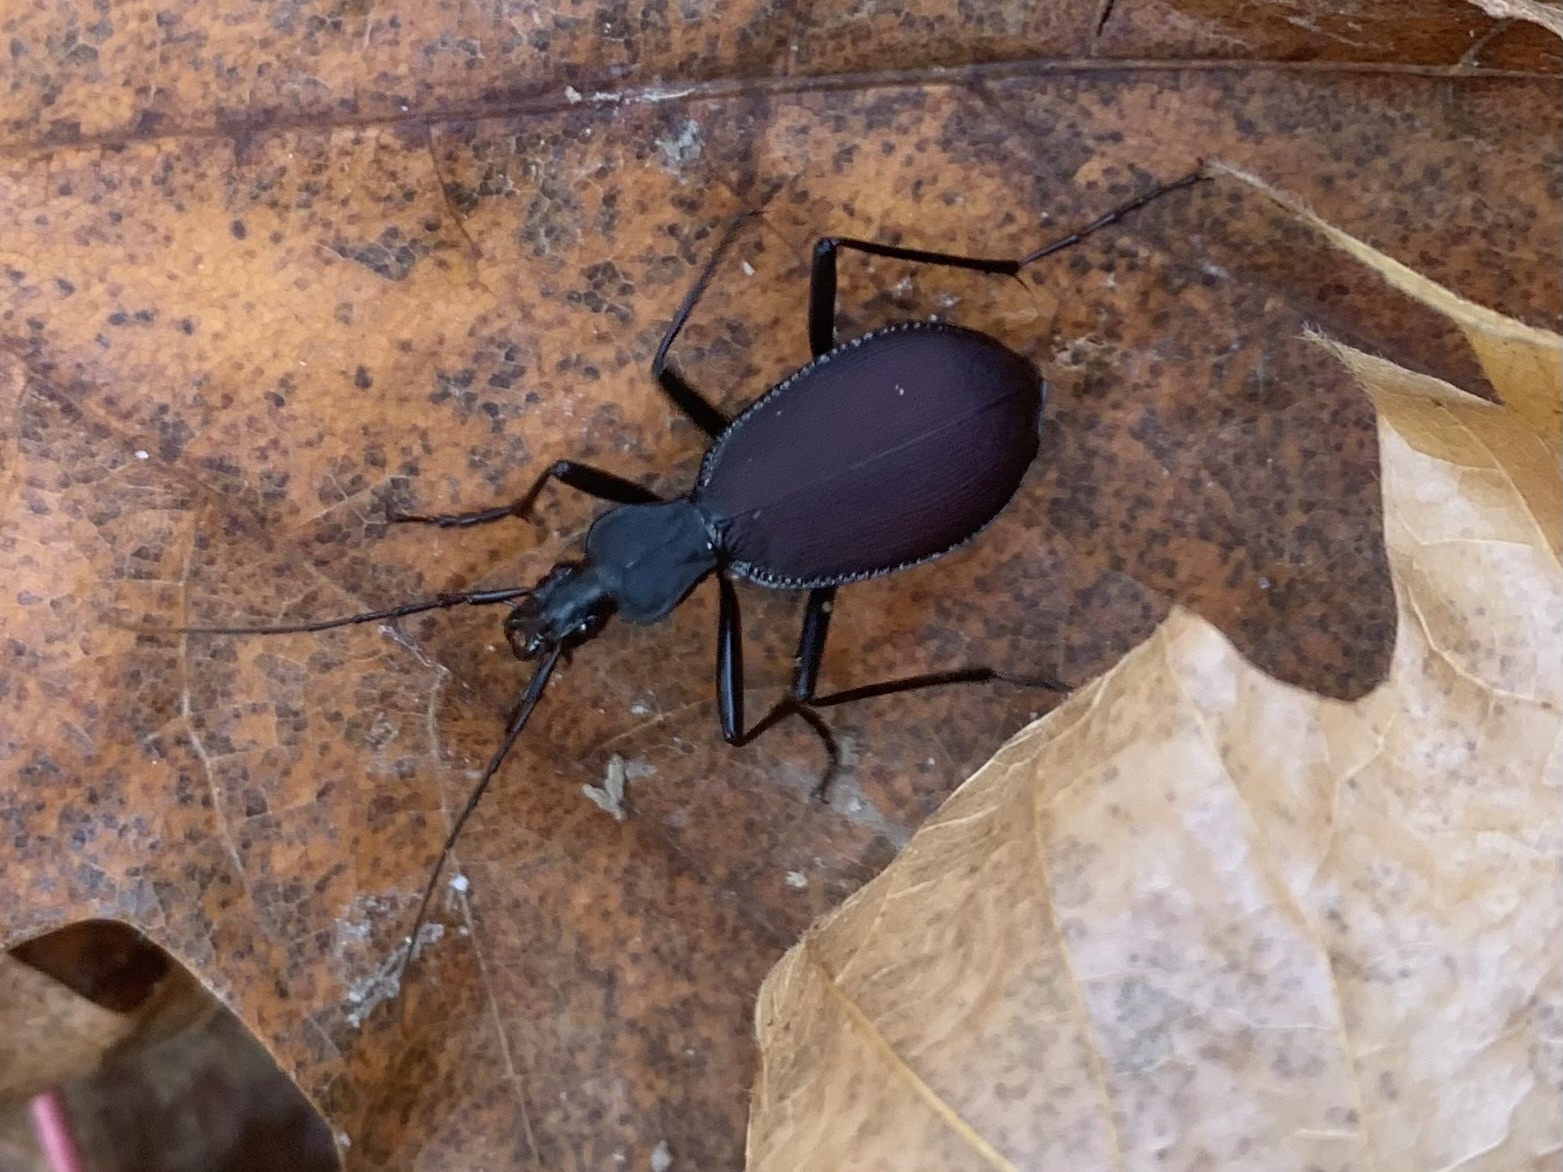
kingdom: Animalia
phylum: Arthropoda
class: Insecta
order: Coleoptera
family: Carabidae
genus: Scaphinotus
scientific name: Scaphinotus angusticollis
